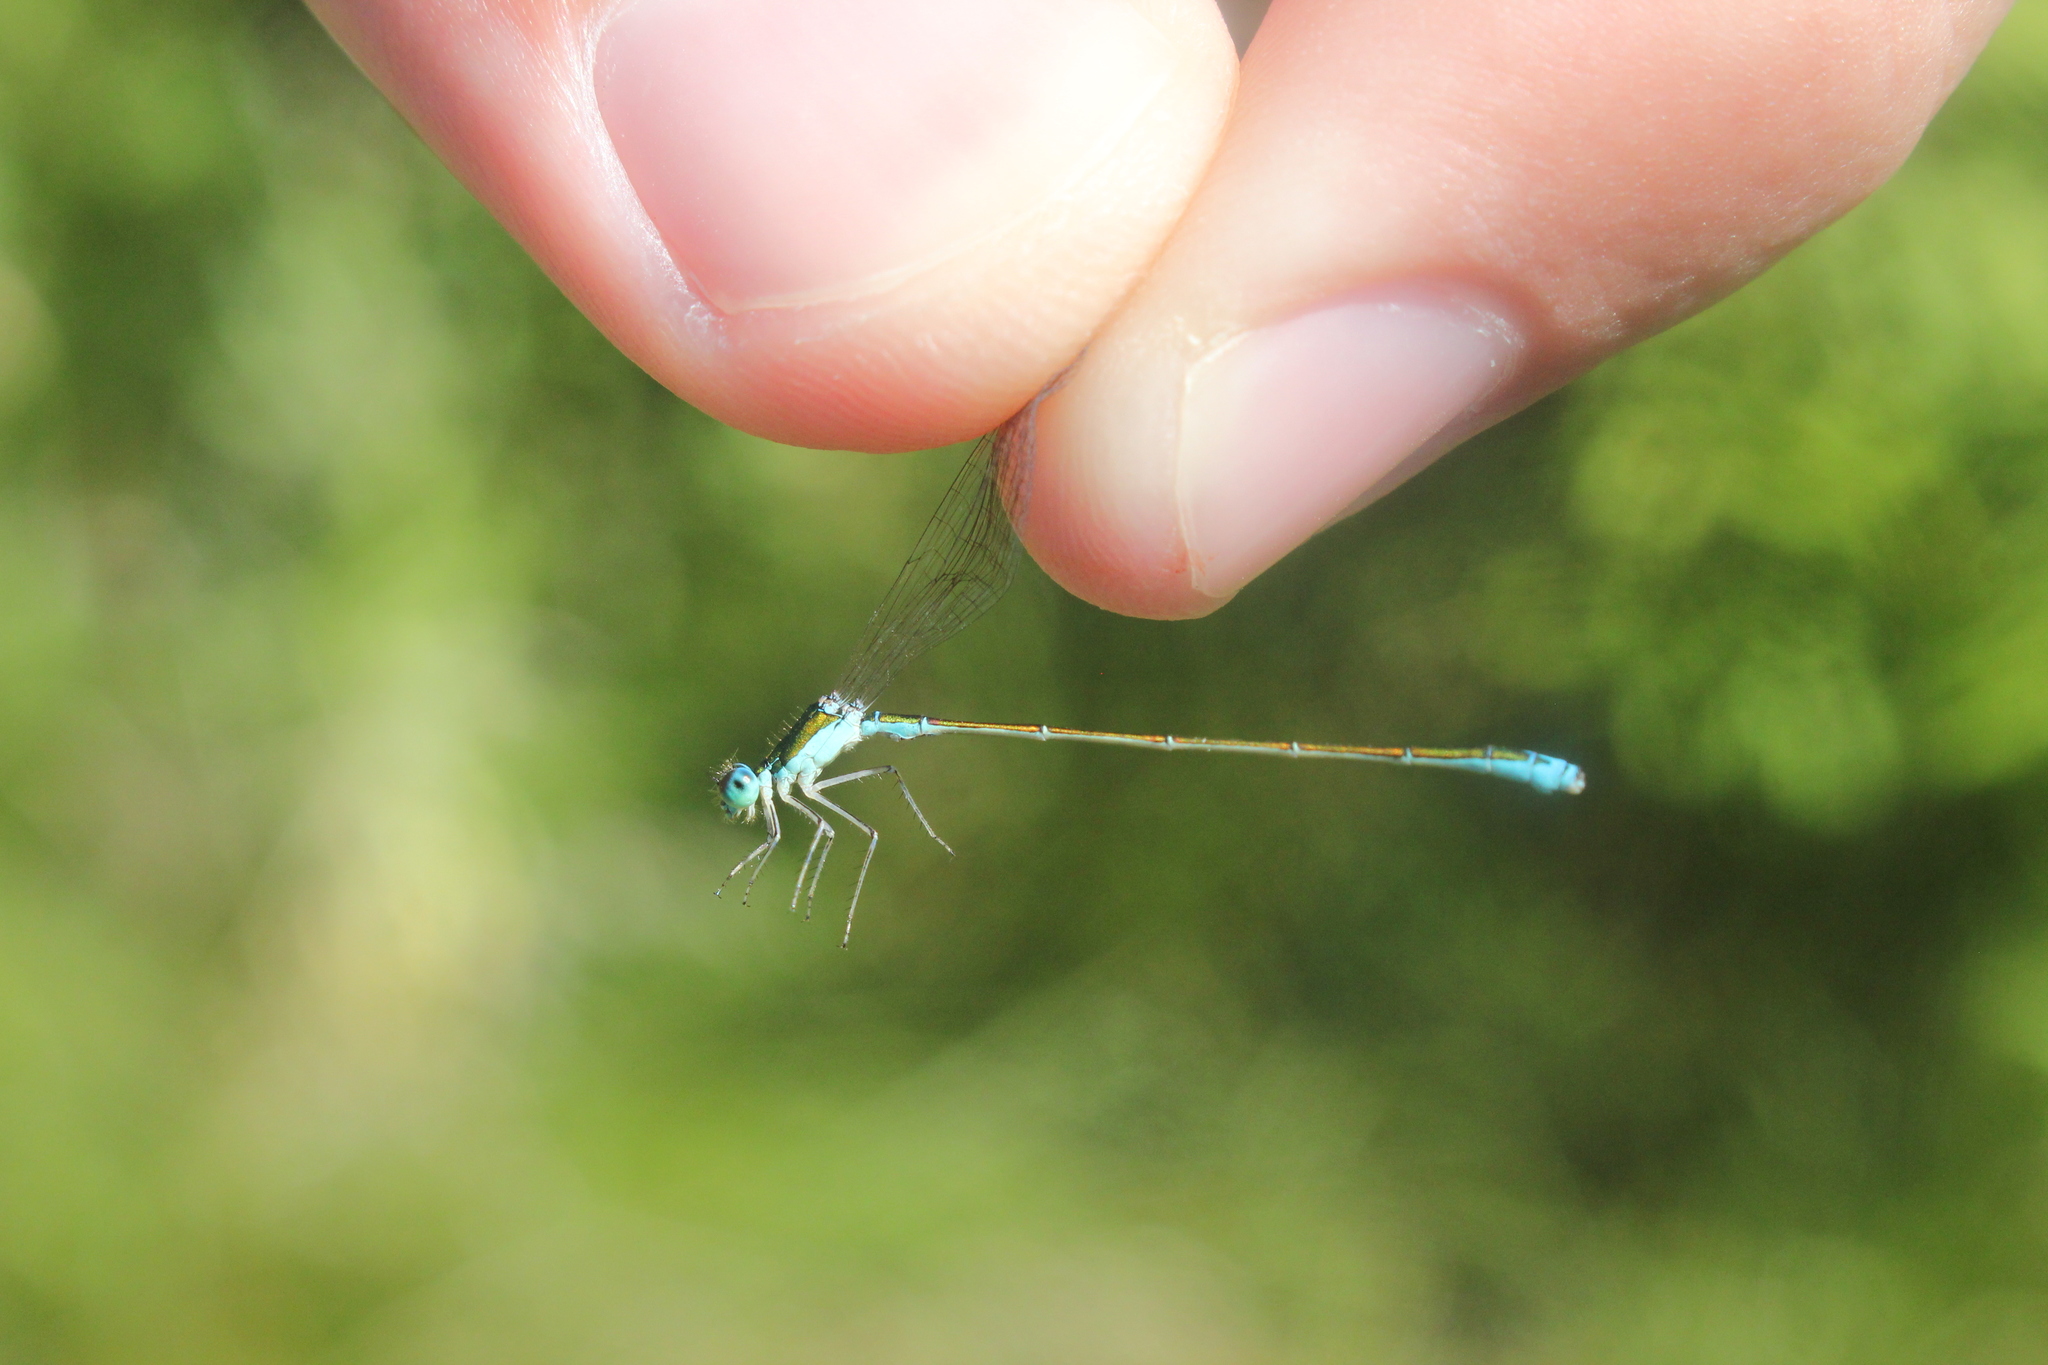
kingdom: Animalia
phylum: Arthropoda
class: Insecta
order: Odonata
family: Coenagrionidae
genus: Nehalennia
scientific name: Nehalennia irene
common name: Sedge sprite
